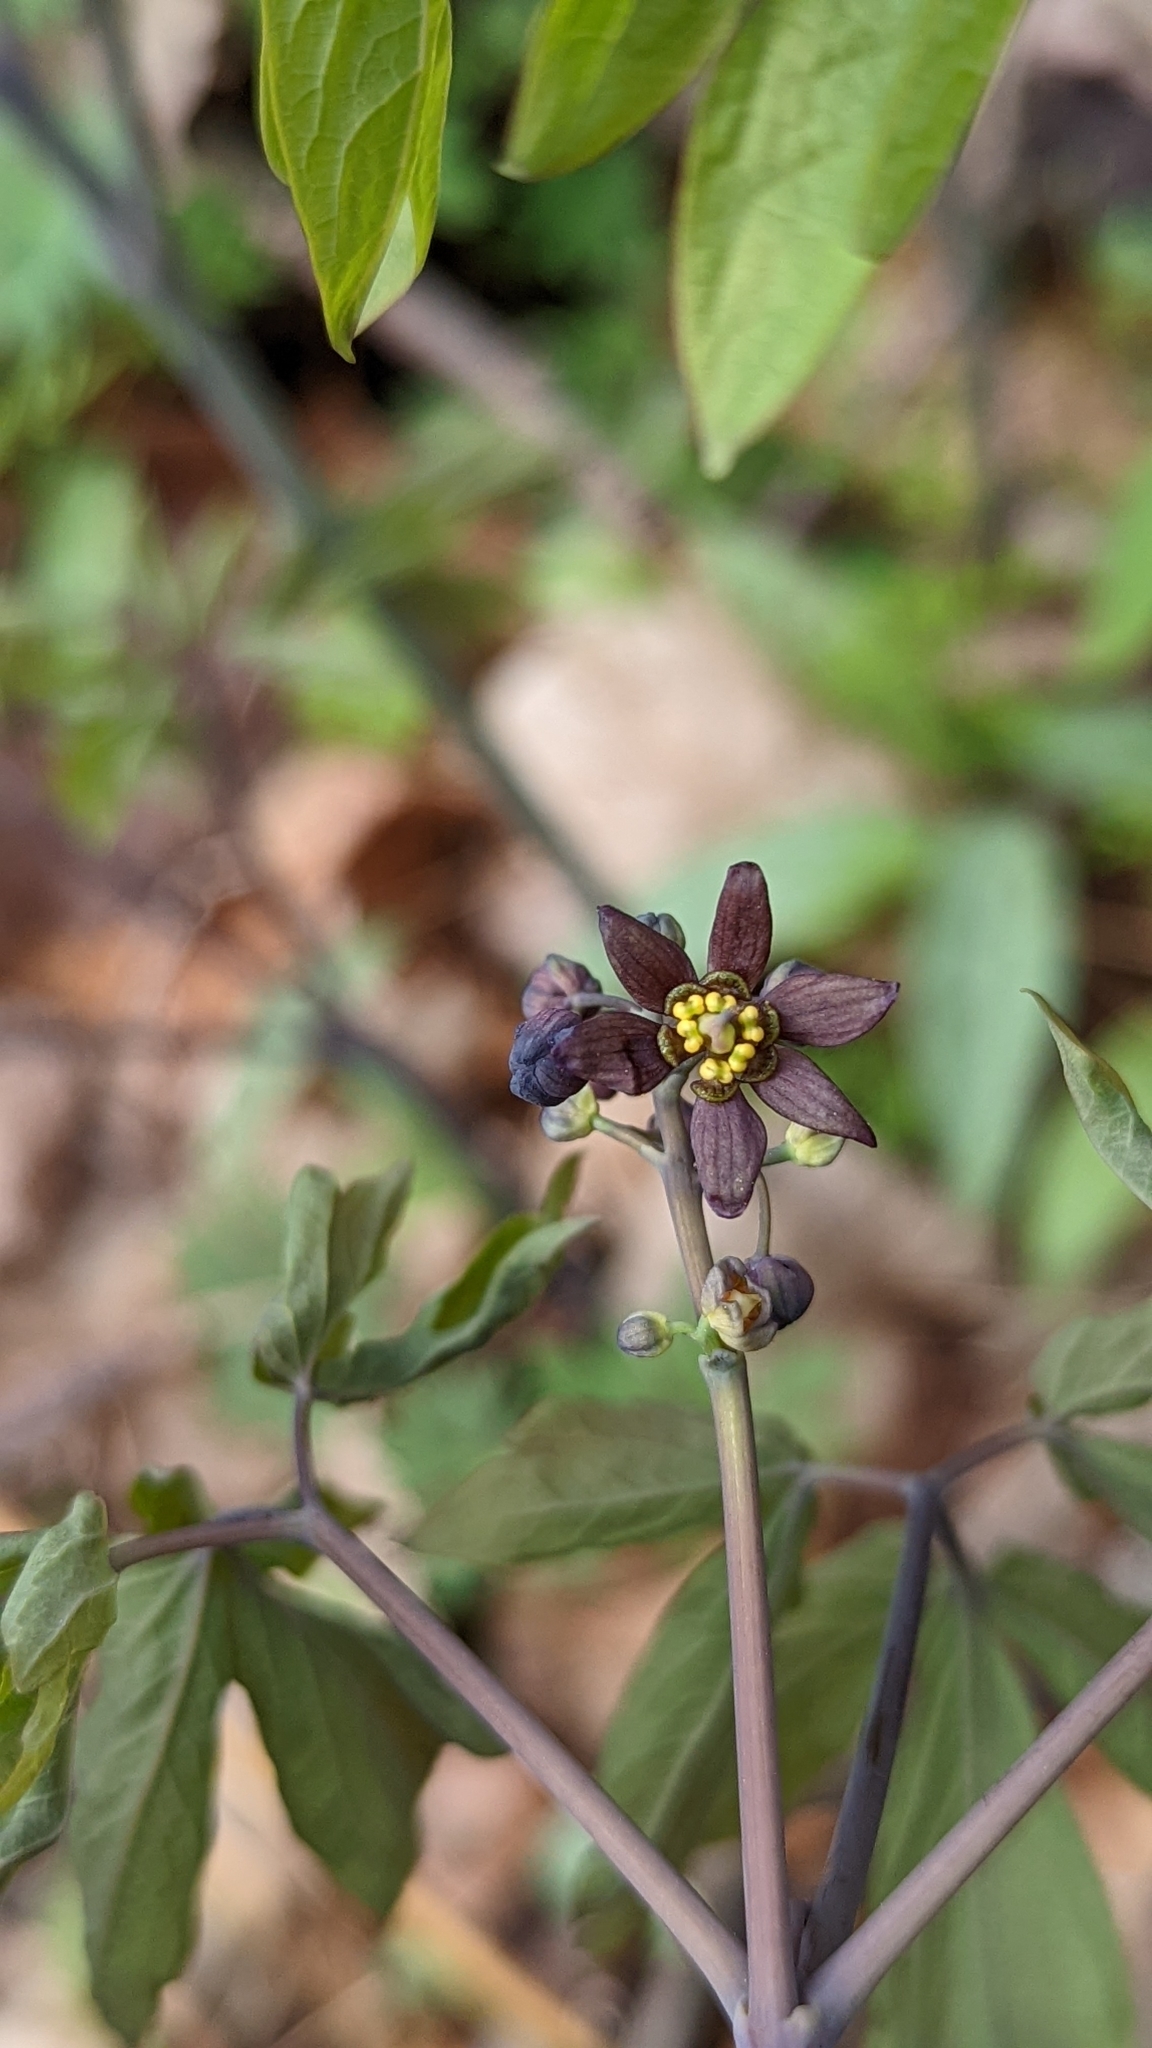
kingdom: Plantae
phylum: Tracheophyta
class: Magnoliopsida
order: Ranunculales
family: Berberidaceae
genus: Caulophyllum
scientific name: Caulophyllum giganteum
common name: Blue cohosh
